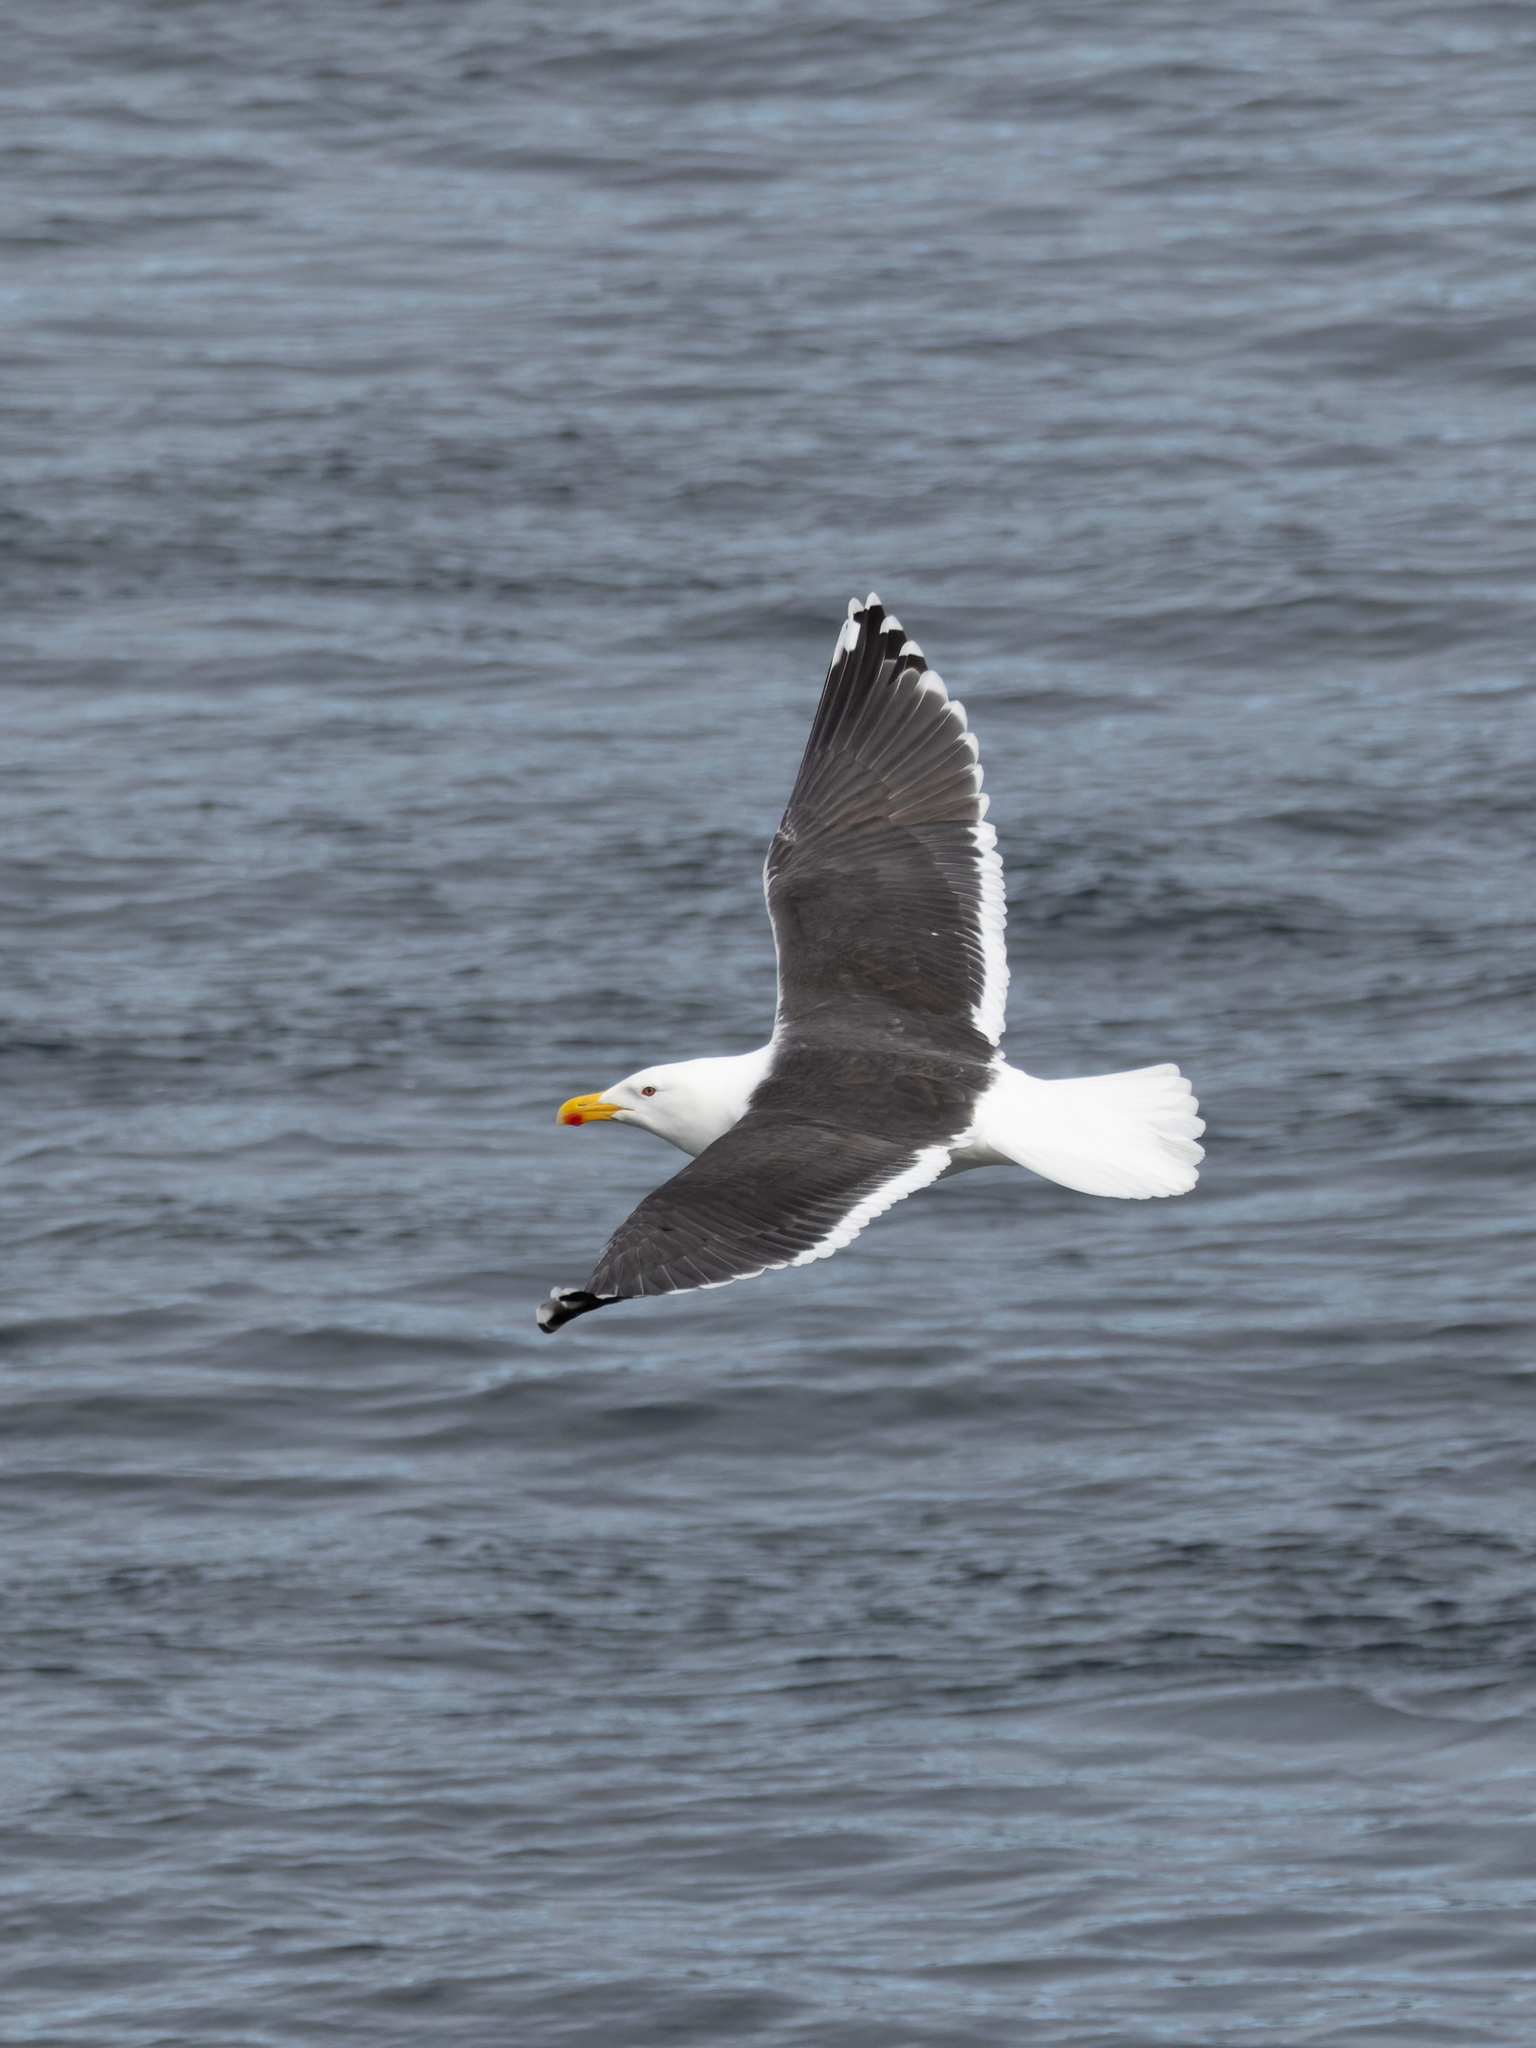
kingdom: Animalia
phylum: Chordata
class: Aves
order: Charadriiformes
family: Laridae
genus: Larus
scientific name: Larus marinus
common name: Great black-backed gull
